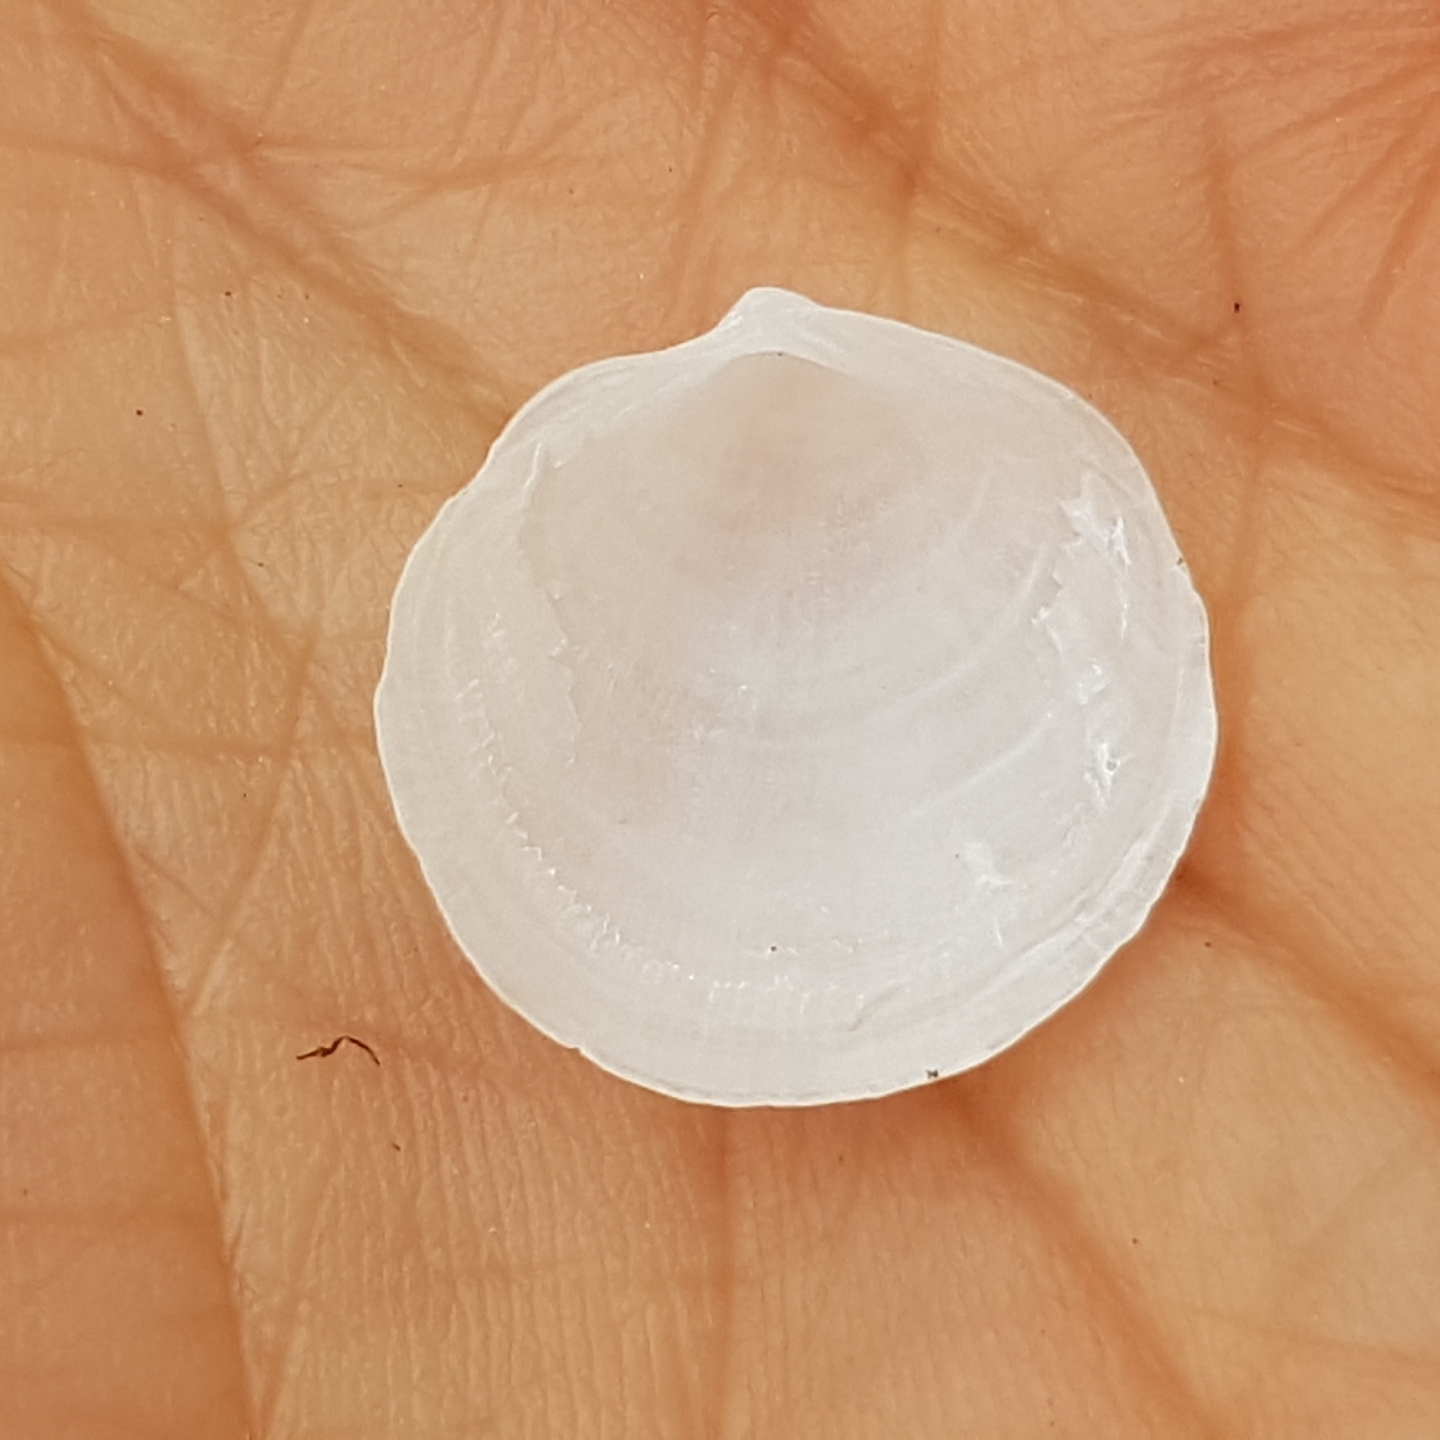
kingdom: Animalia
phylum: Mollusca
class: Bivalvia
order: Lucinida
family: Lucinidae
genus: Loripes
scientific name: Loripes orbiculatus
